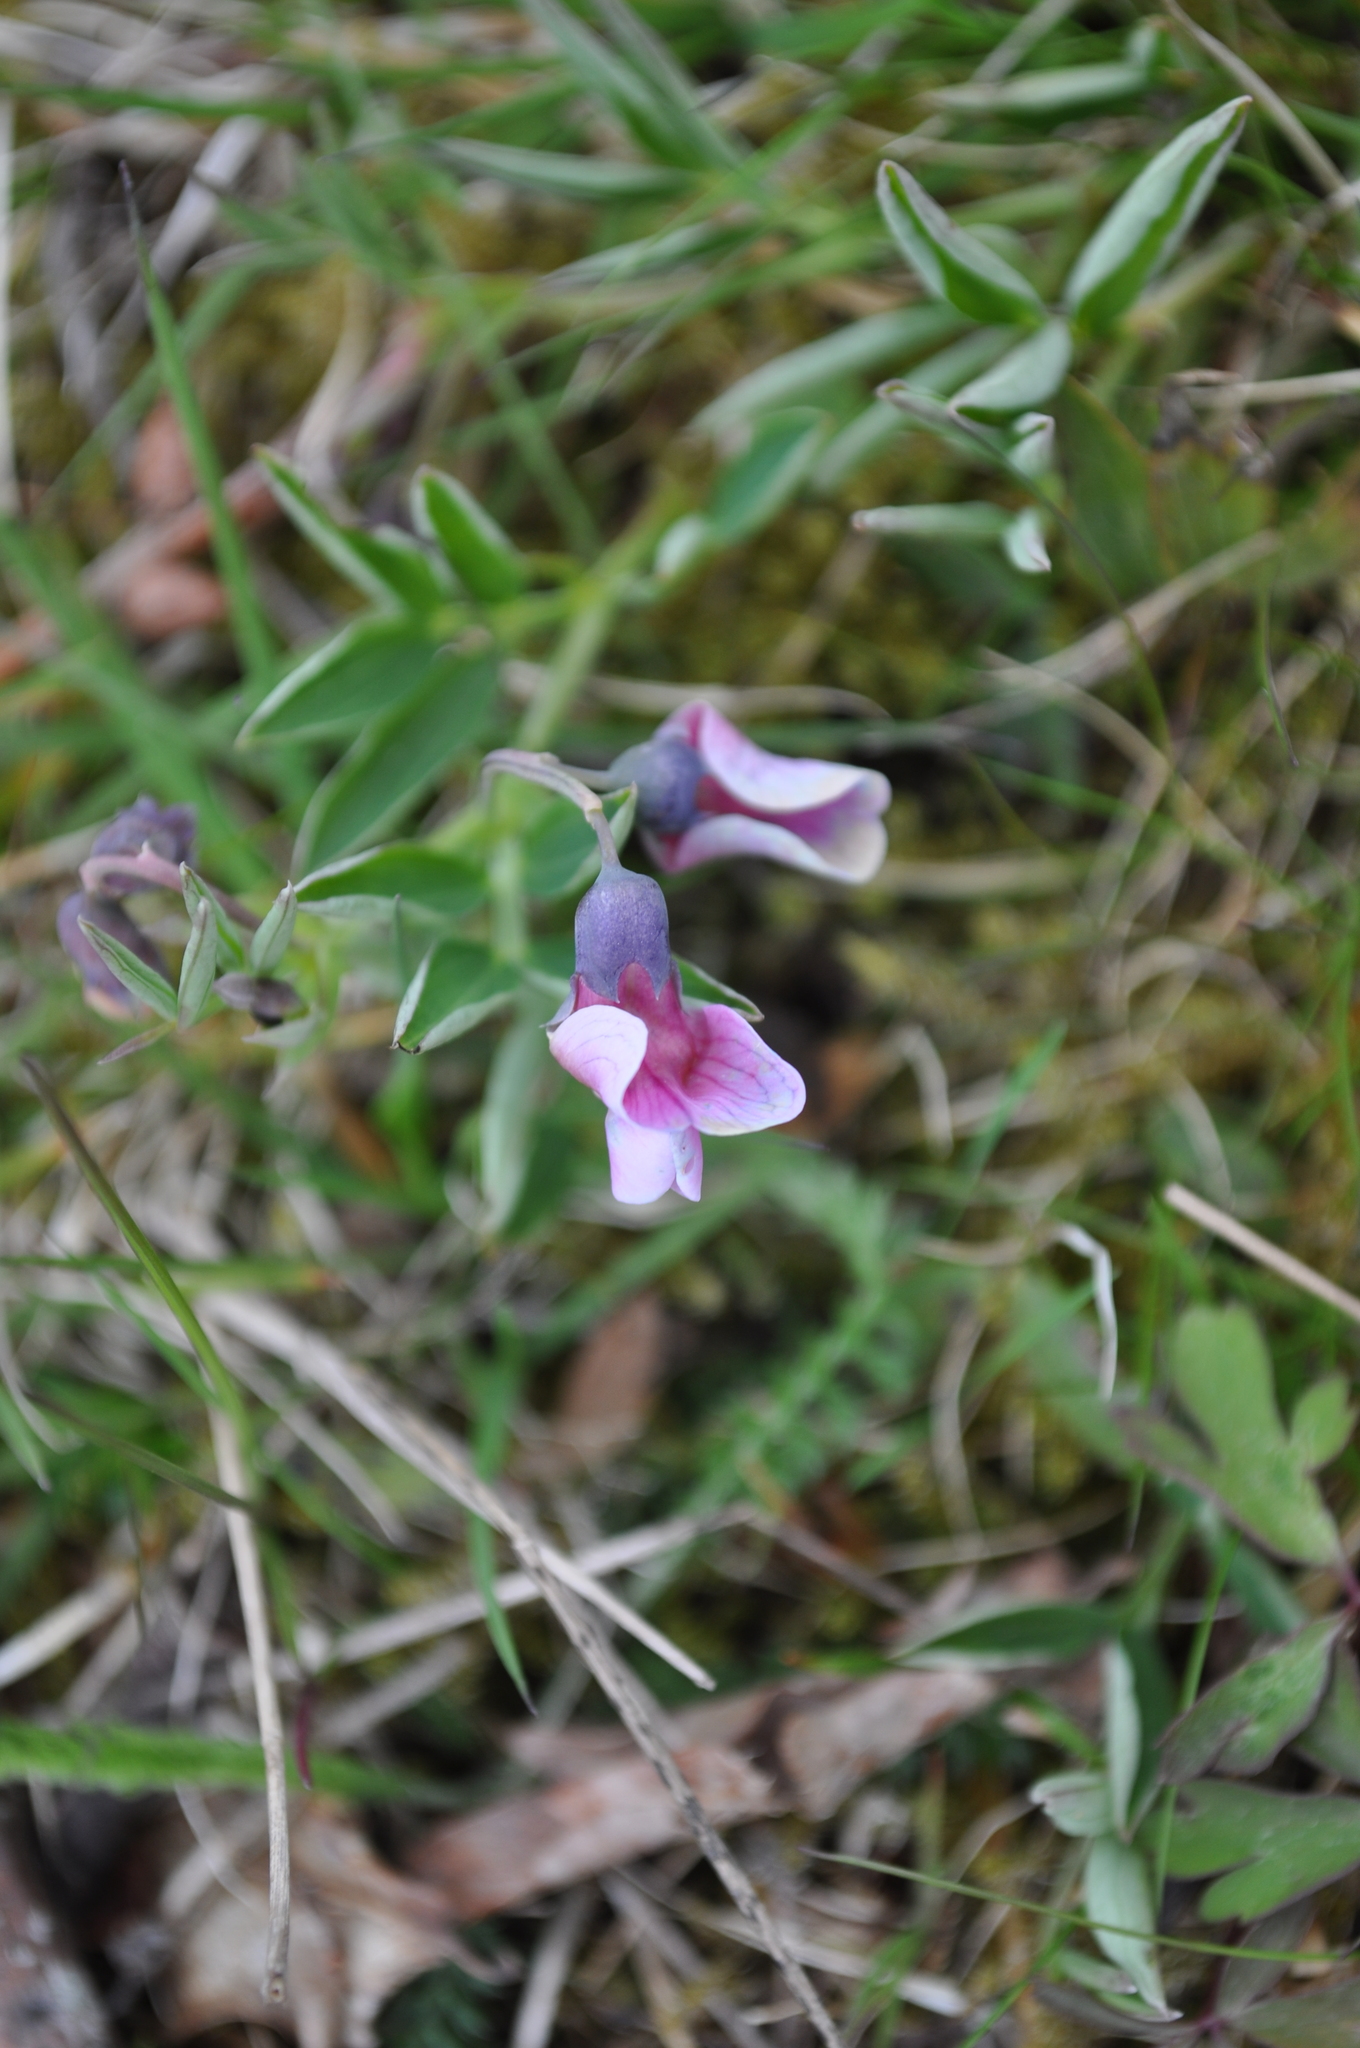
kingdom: Plantae
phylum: Tracheophyta
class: Magnoliopsida
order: Fabales
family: Fabaceae
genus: Lathyrus
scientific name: Lathyrus linifolius
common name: Bitter-vetch
